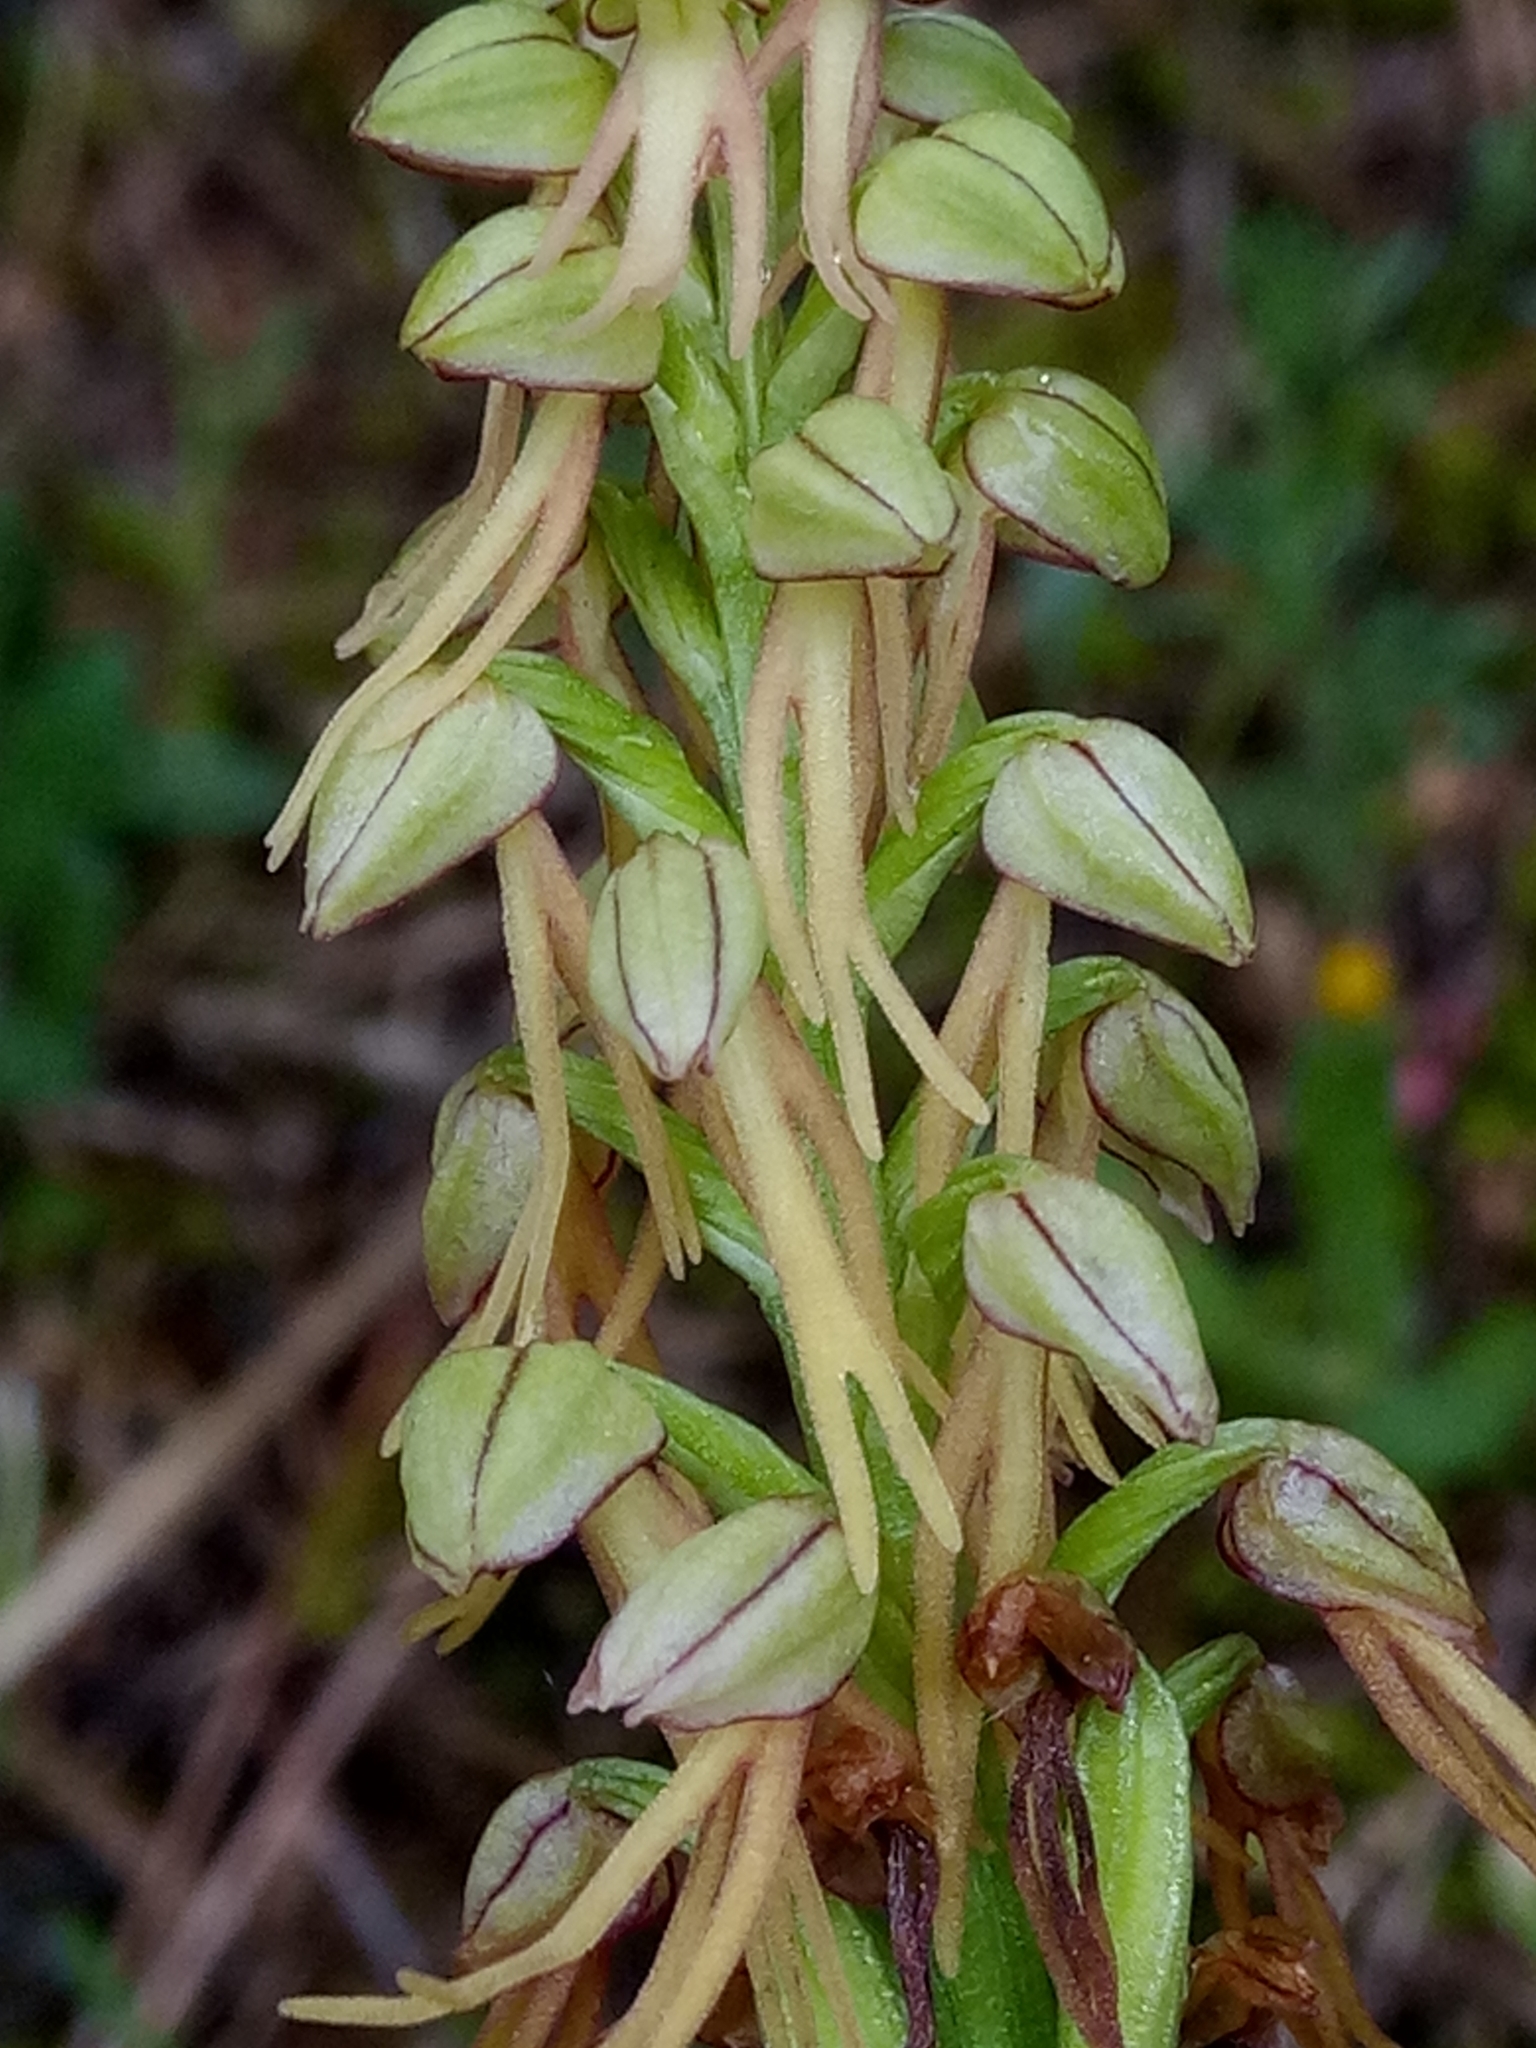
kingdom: Plantae
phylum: Tracheophyta
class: Liliopsida
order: Asparagales
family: Orchidaceae
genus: Orchis
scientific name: Orchis anthropophora
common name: Man orchid
